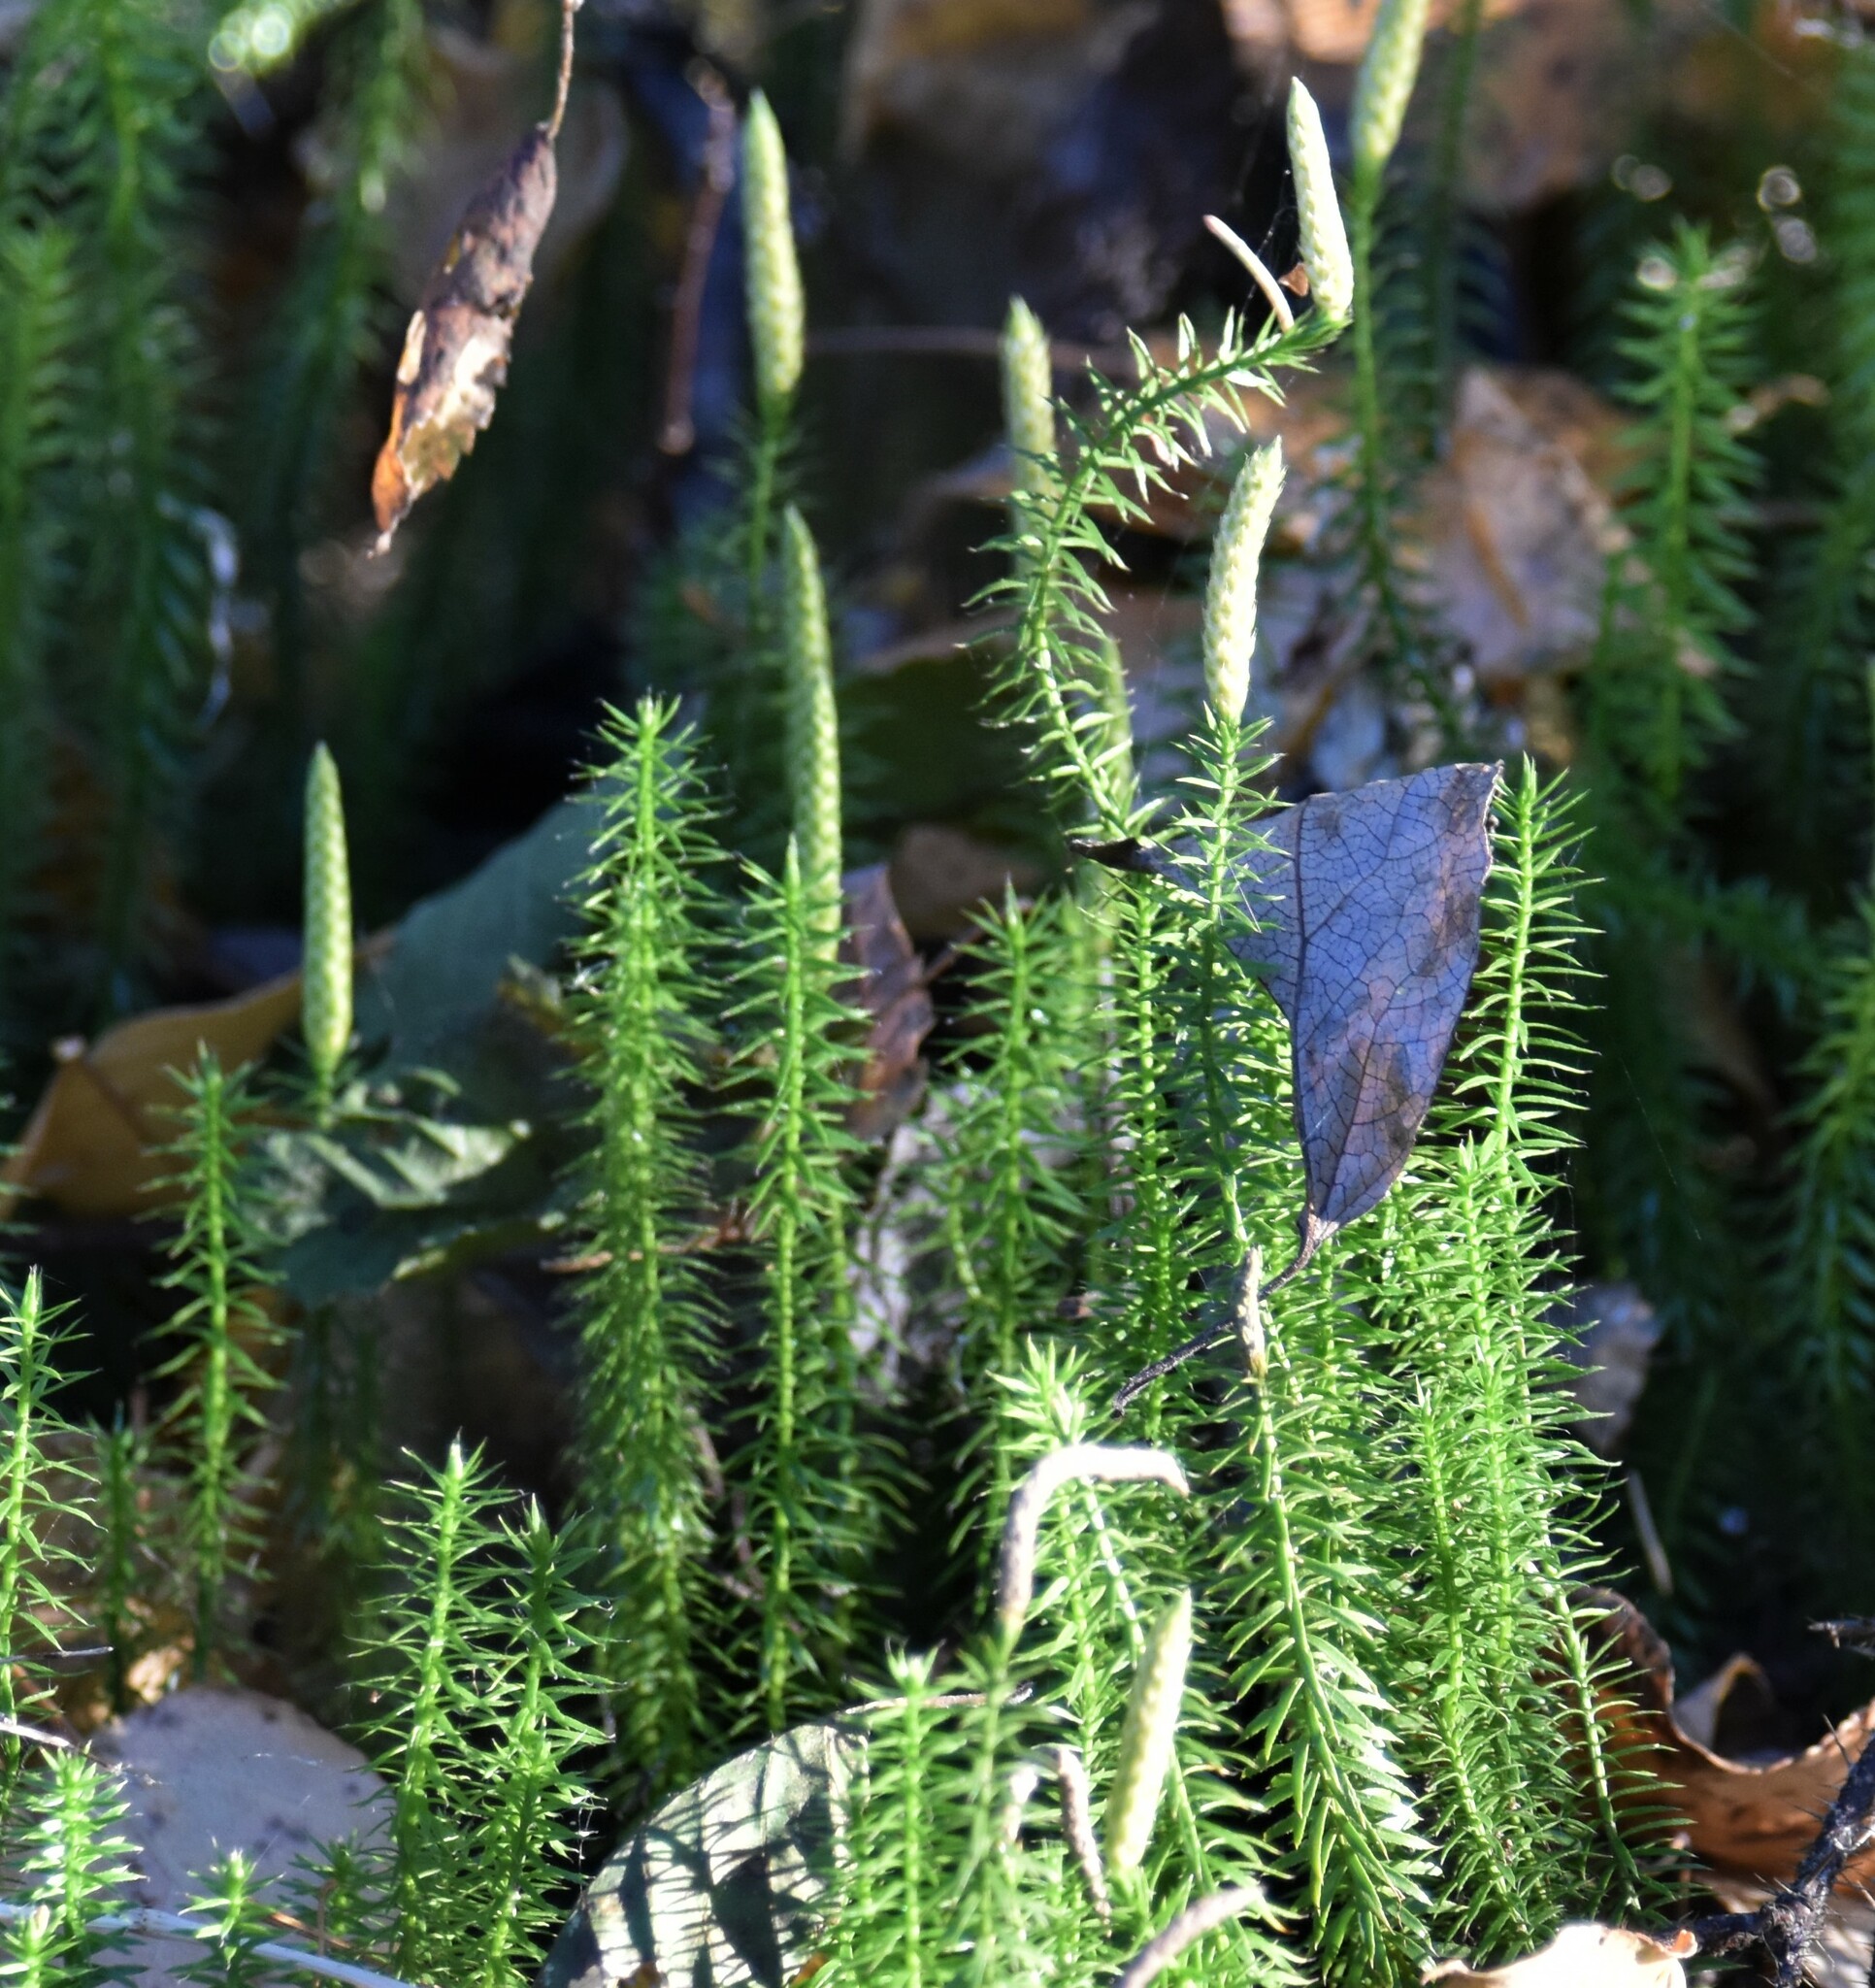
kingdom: Plantae
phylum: Tracheophyta
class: Lycopodiopsida
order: Lycopodiales
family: Lycopodiaceae
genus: Spinulum
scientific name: Spinulum annotinum
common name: Interrupted club-moss
